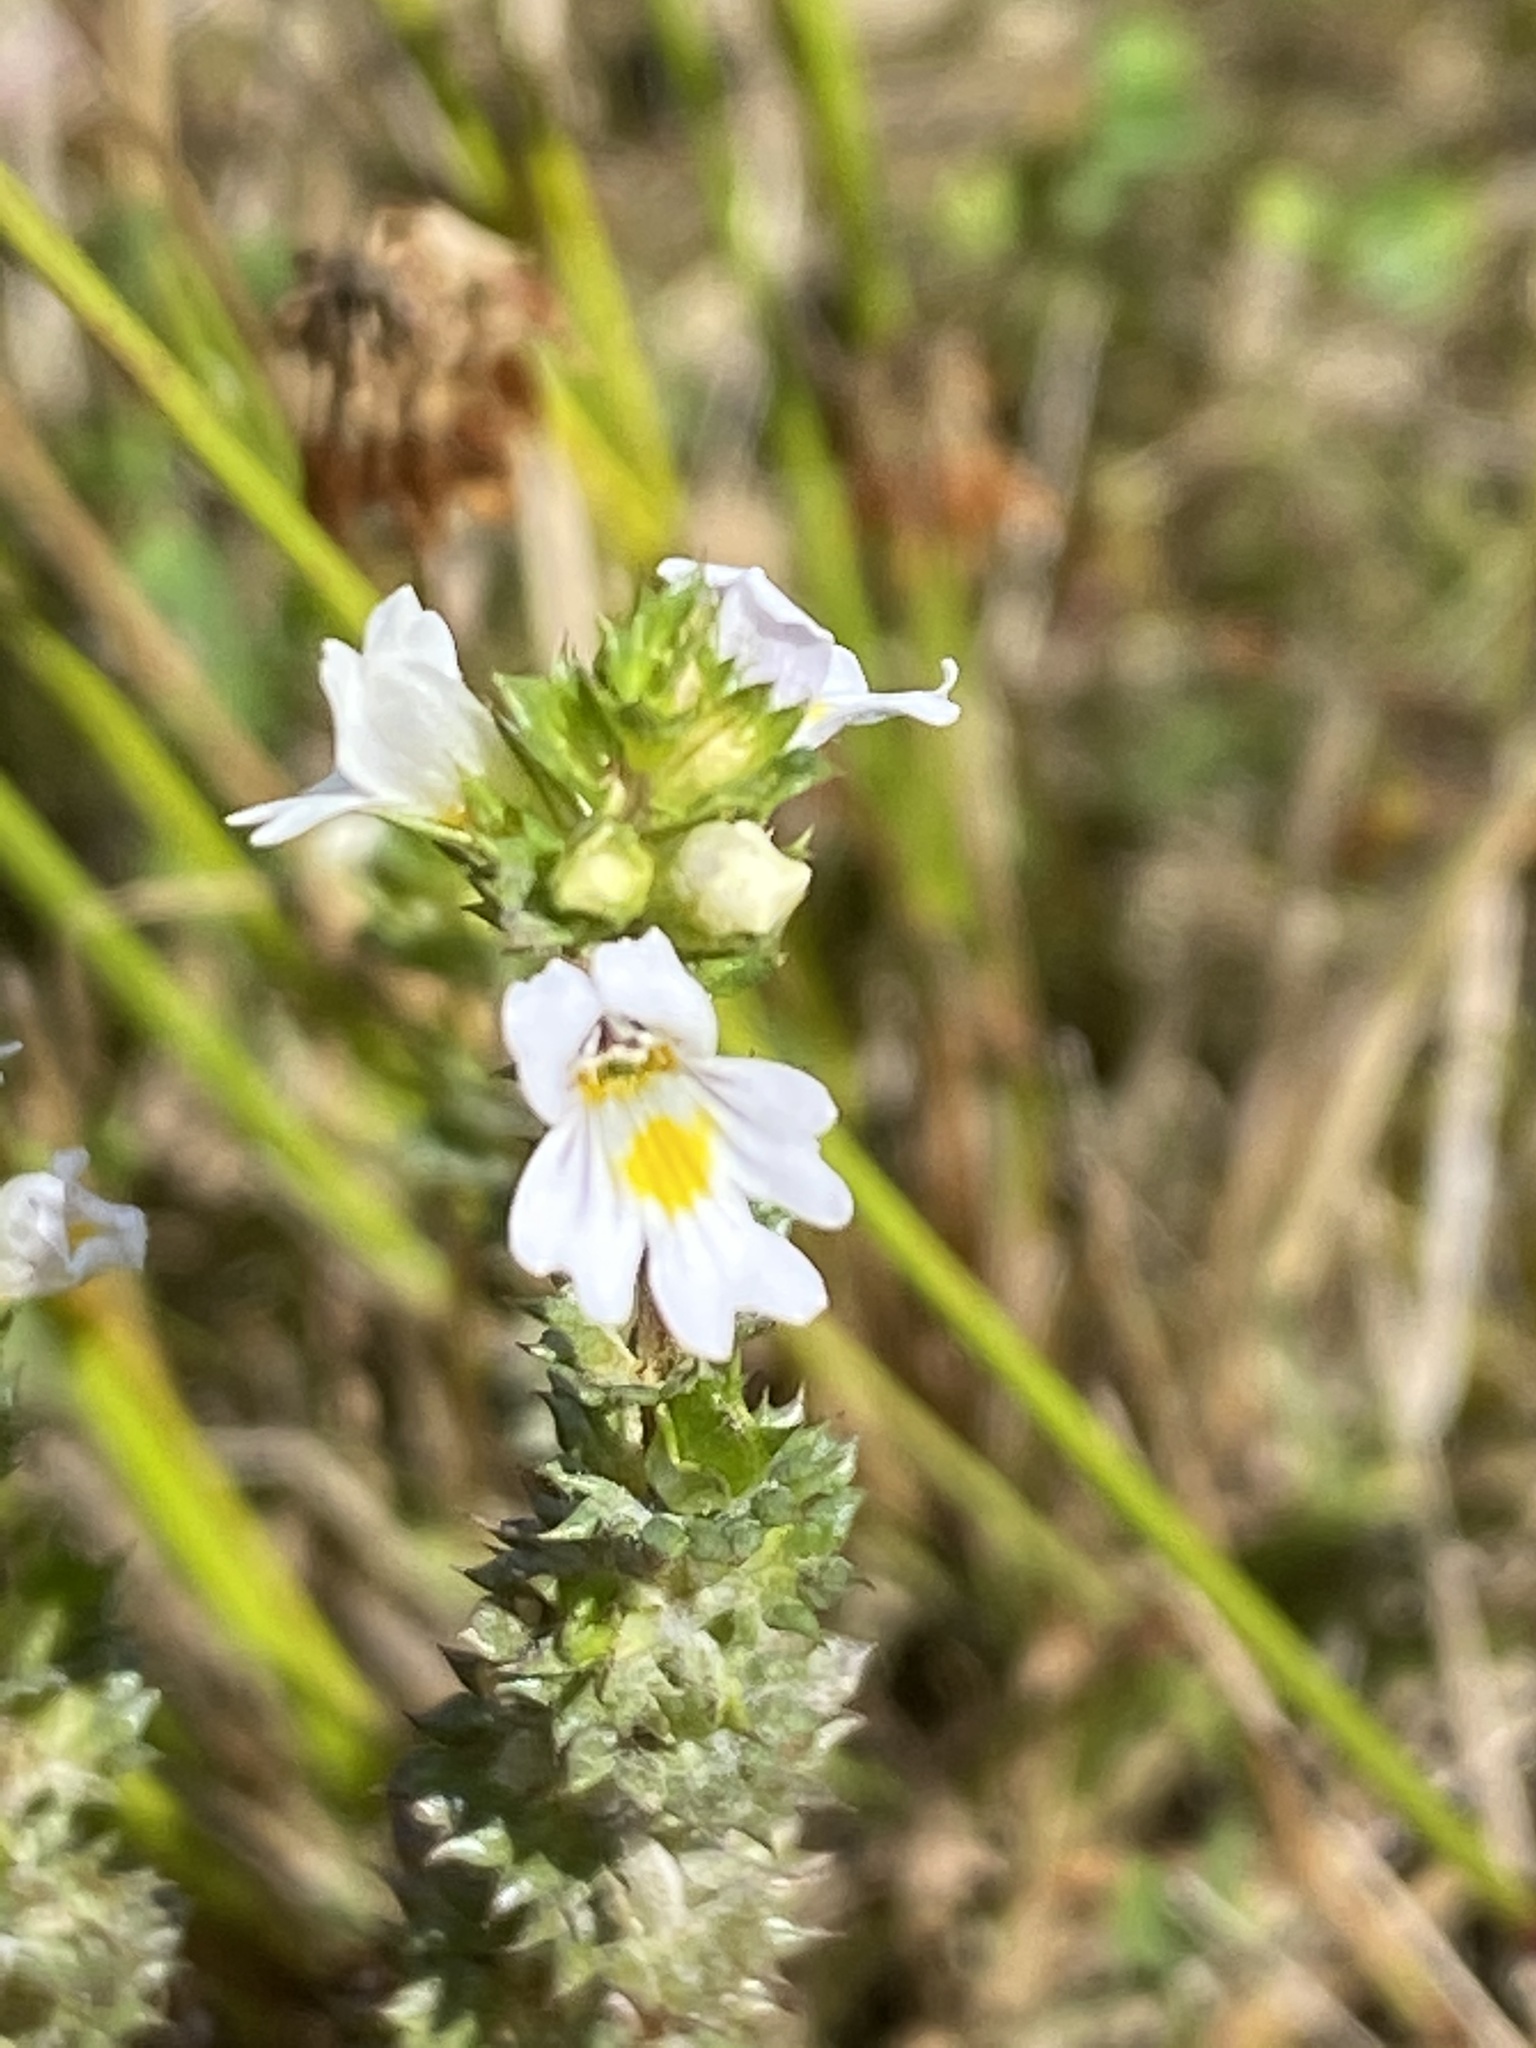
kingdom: Plantae
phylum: Tracheophyta
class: Magnoliopsida
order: Lamiales
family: Orobanchaceae
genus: Euphrasia
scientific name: Euphrasia stricta
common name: Drug eyebright
